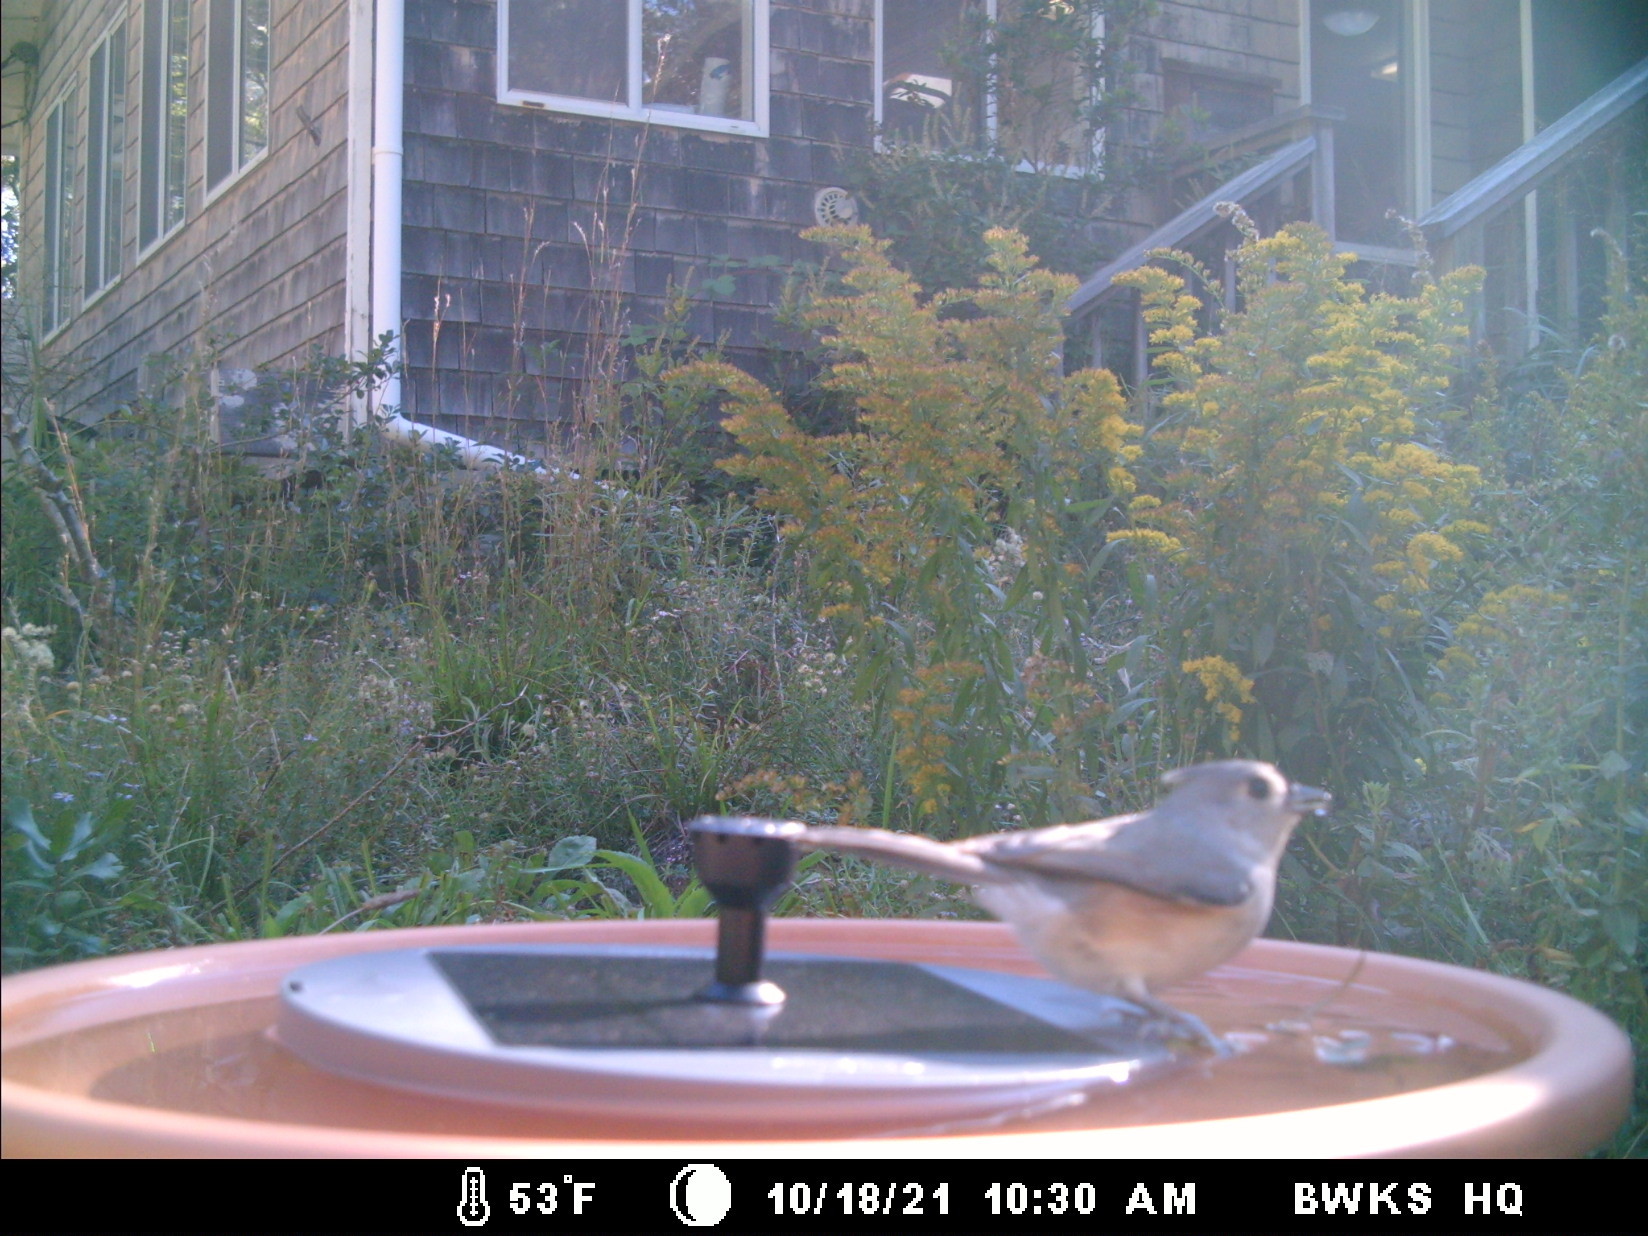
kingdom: Animalia
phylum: Chordata
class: Aves
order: Passeriformes
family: Paridae
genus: Baeolophus
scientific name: Baeolophus bicolor
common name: Tufted titmouse
